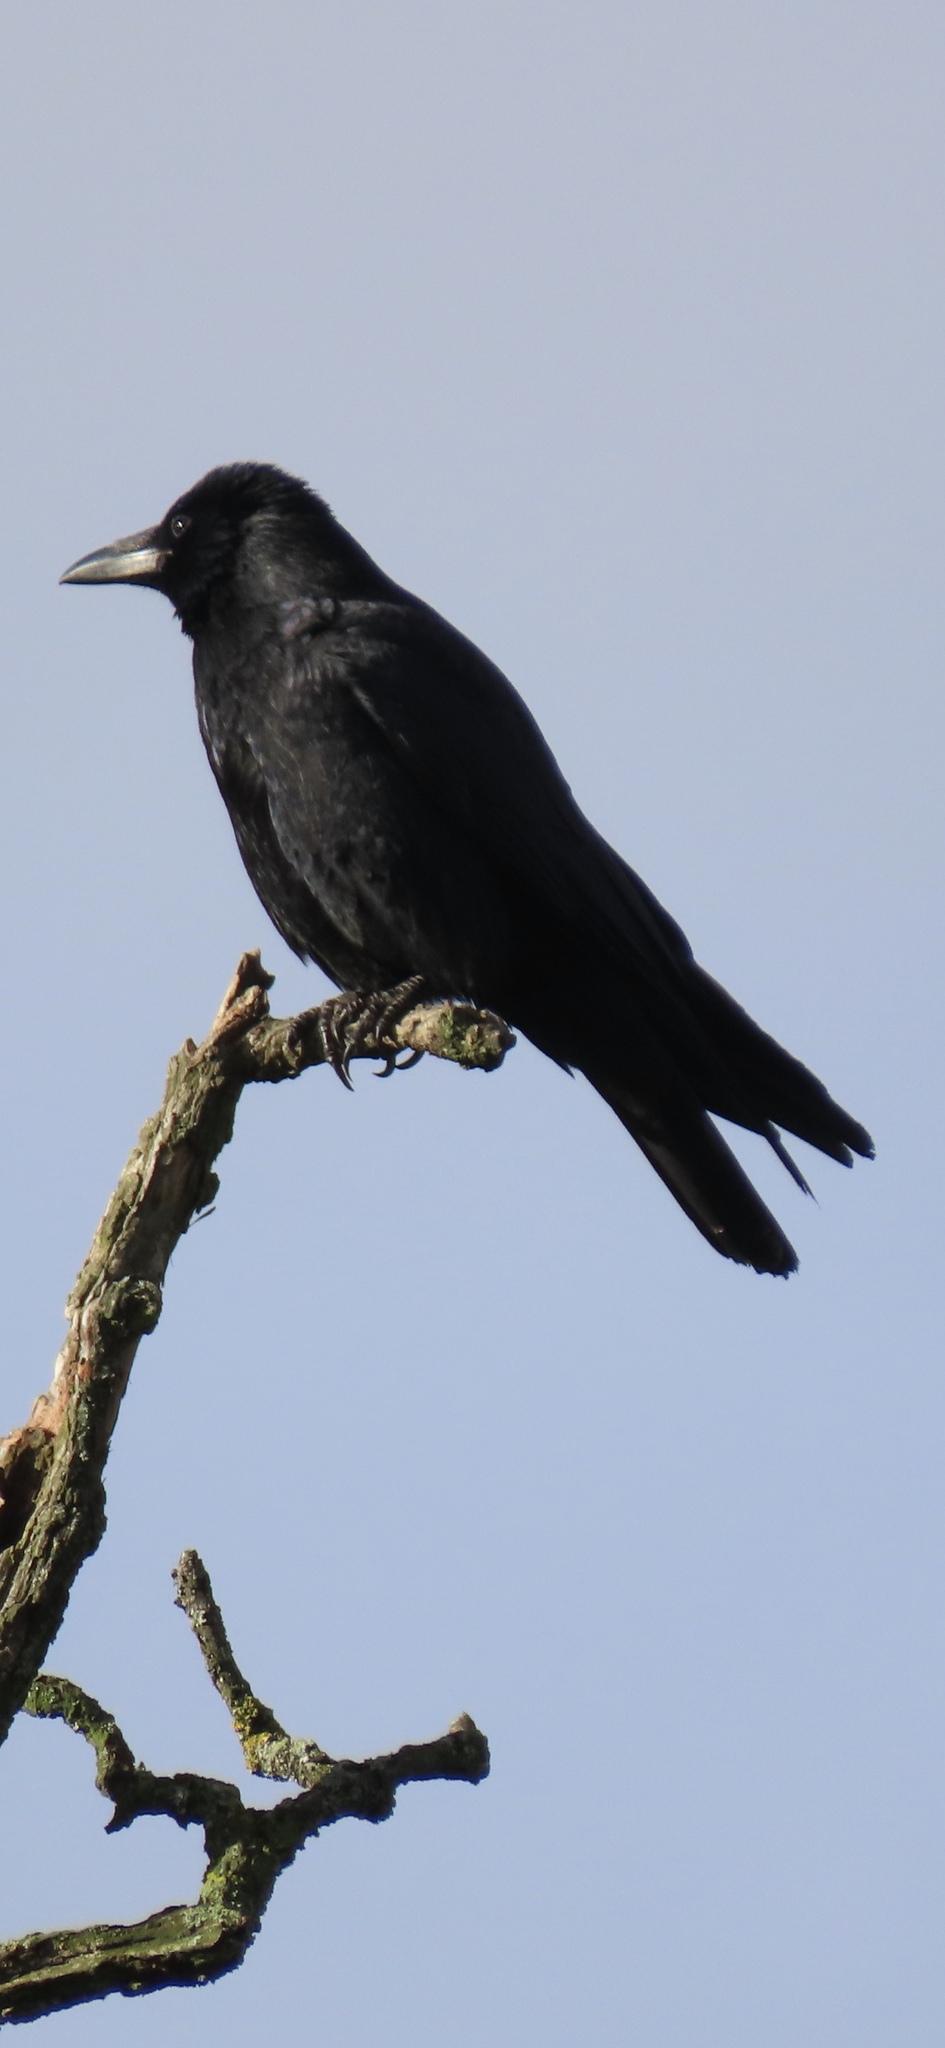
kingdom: Animalia
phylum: Chordata
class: Aves
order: Passeriformes
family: Corvidae
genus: Corvus
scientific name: Corvus corone
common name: Carrion crow
